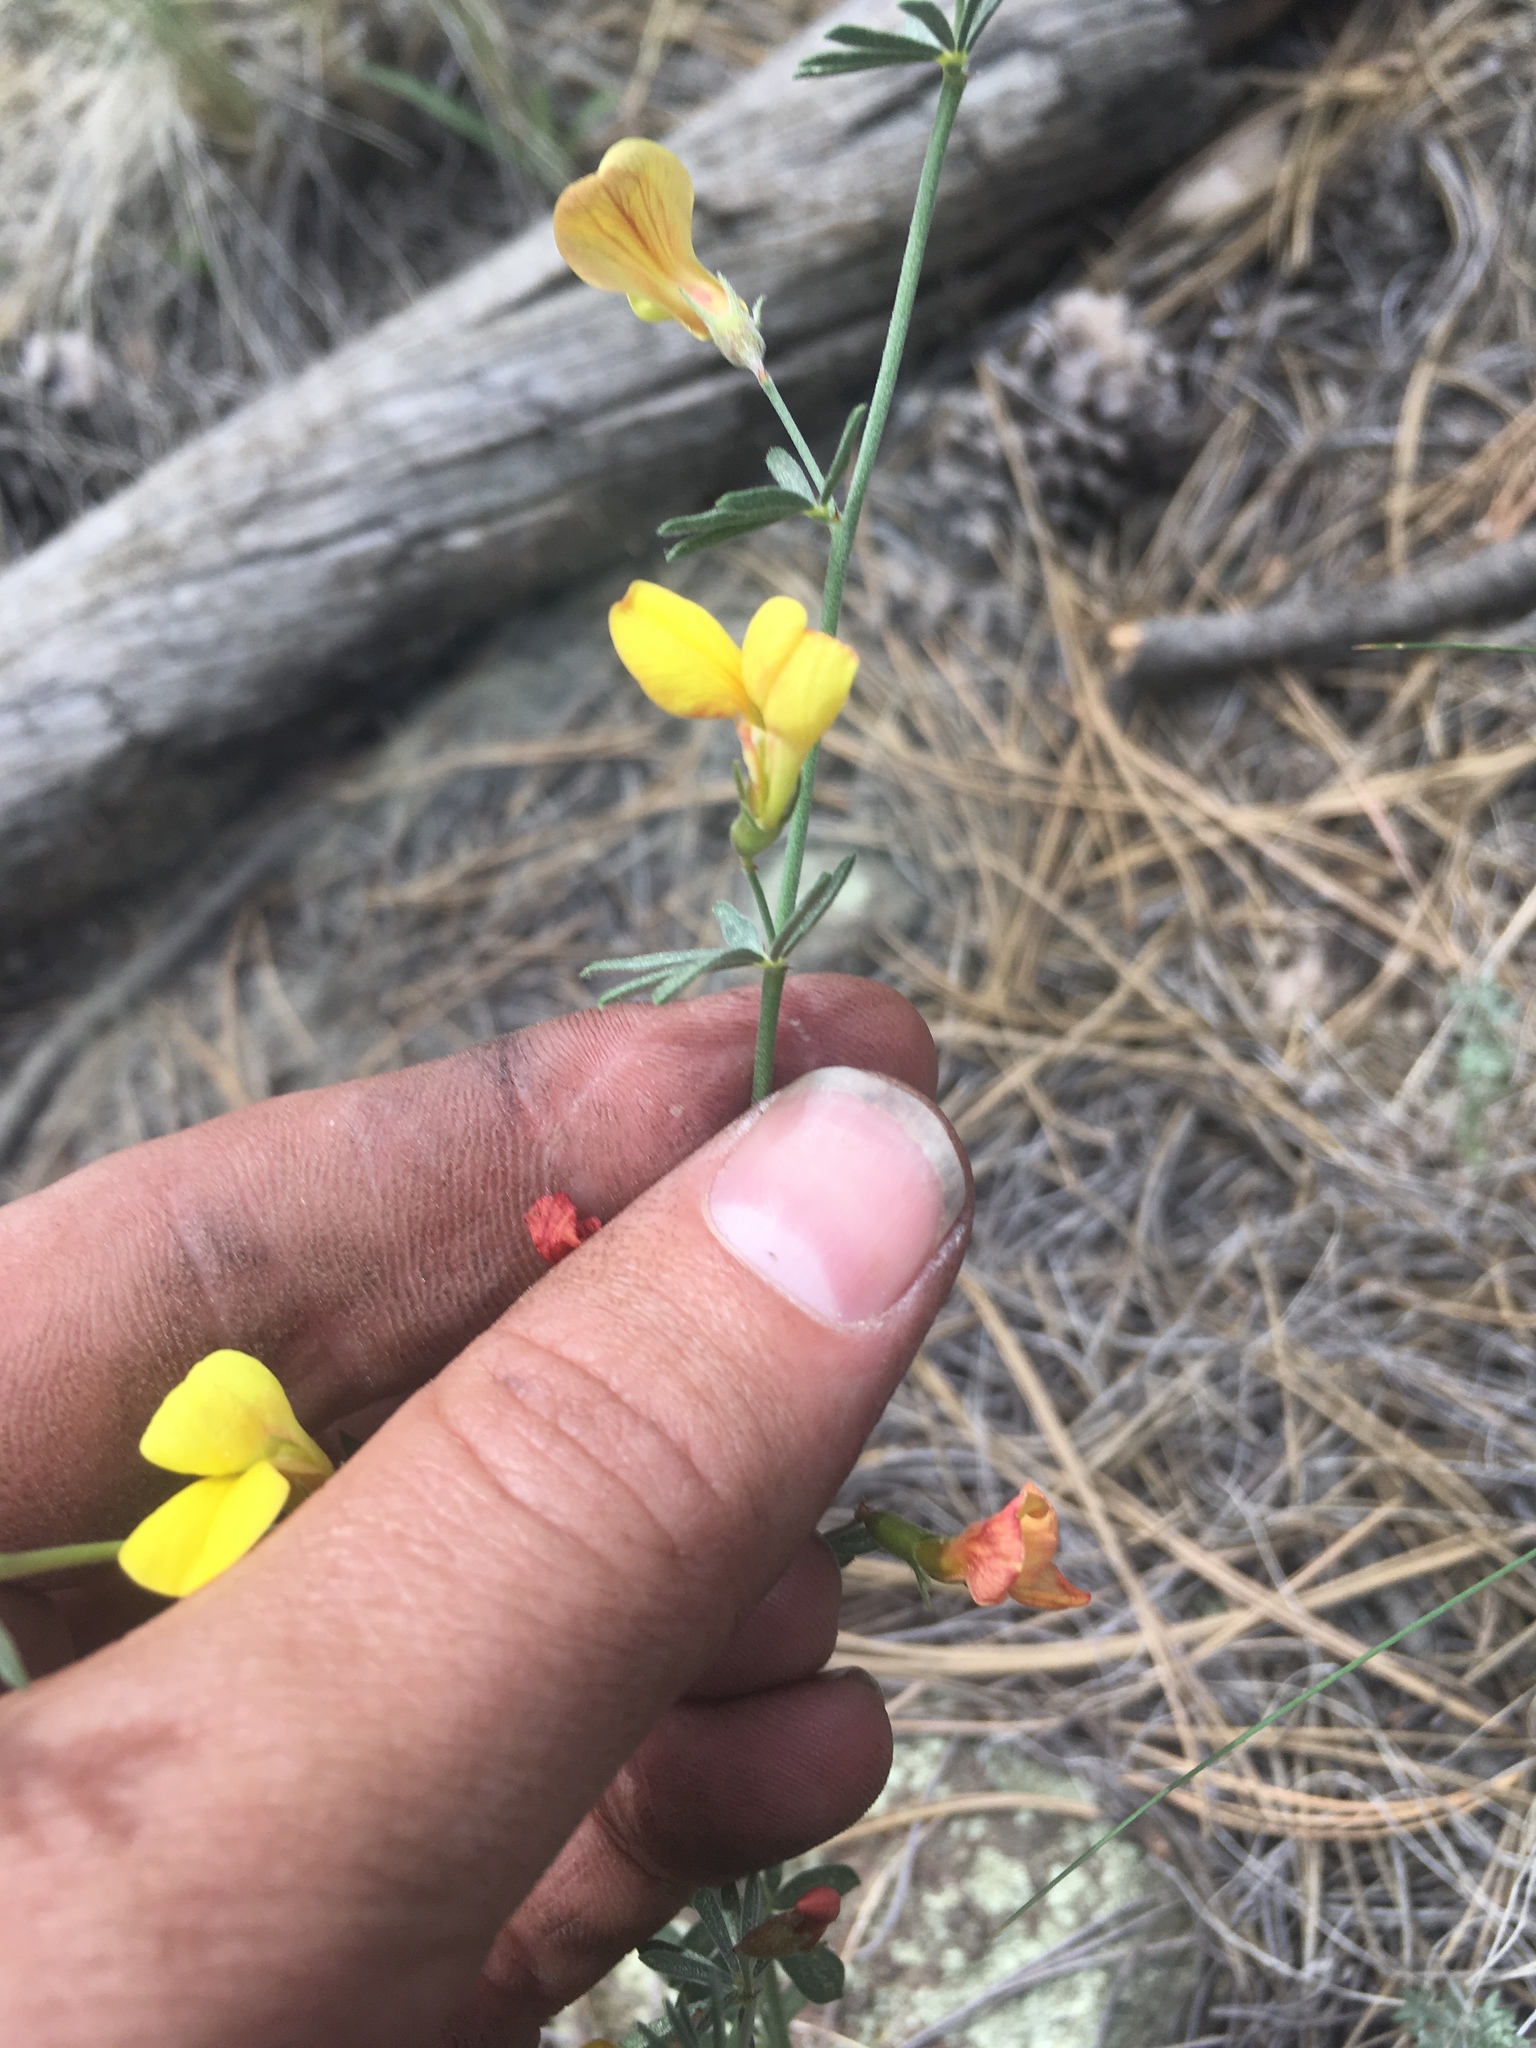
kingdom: Plantae
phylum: Tracheophyta
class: Magnoliopsida
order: Fabales
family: Fabaceae
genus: Acmispon
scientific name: Acmispon wrightii
